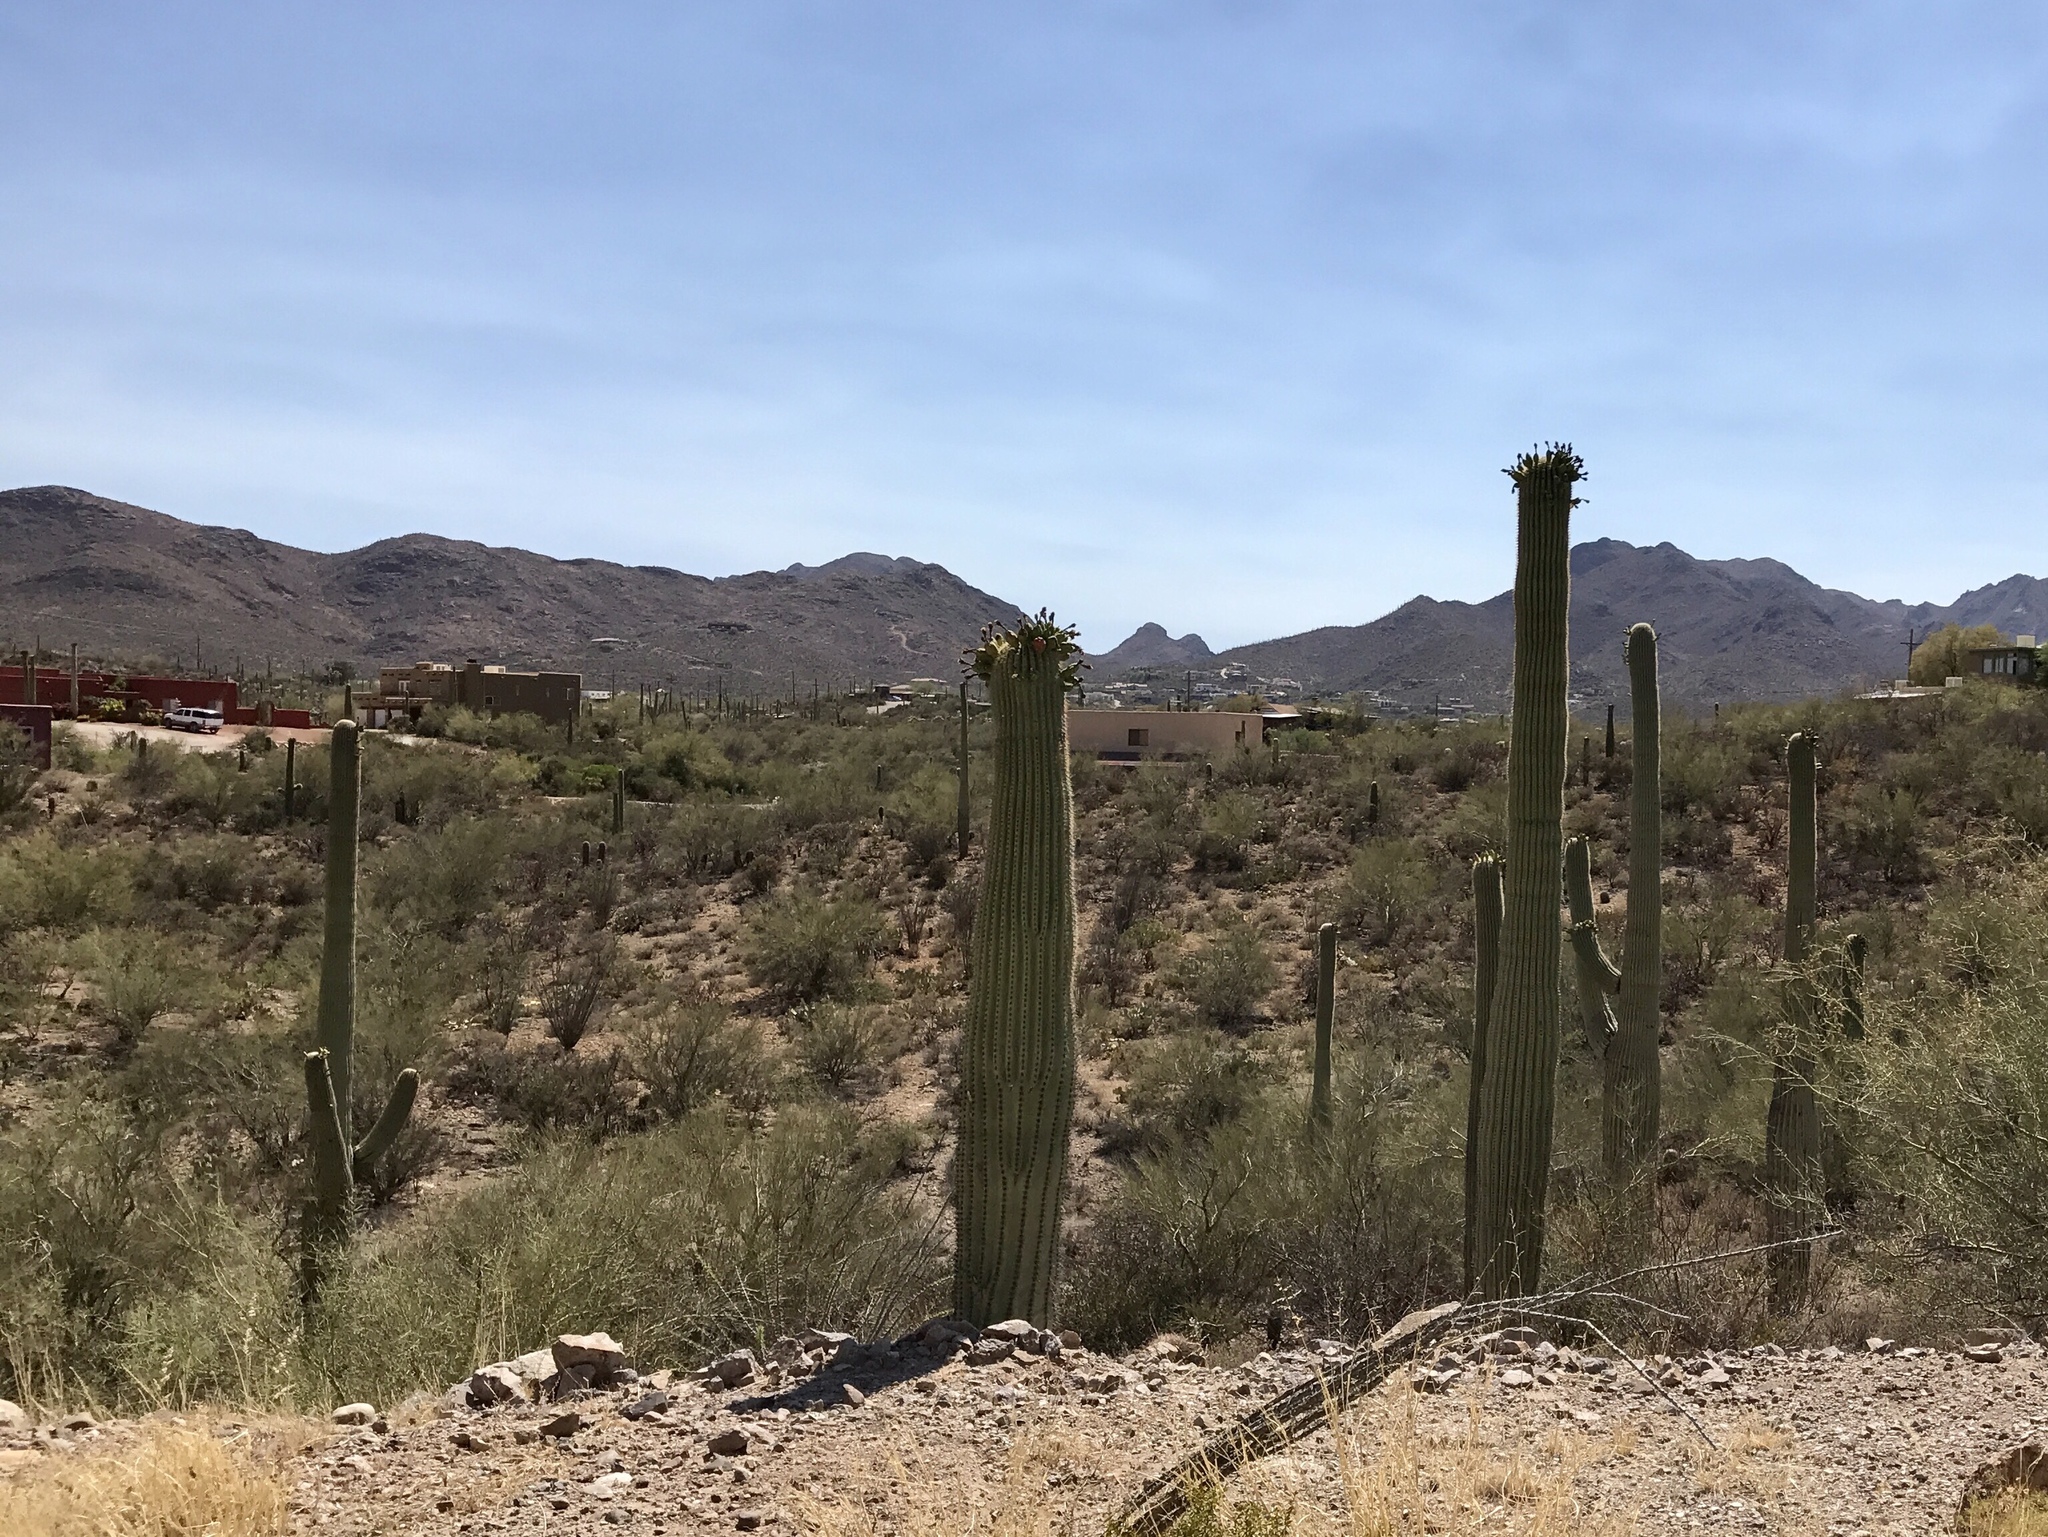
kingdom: Plantae
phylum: Tracheophyta
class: Magnoliopsida
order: Caryophyllales
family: Cactaceae
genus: Carnegiea
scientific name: Carnegiea gigantea
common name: Saguaro
